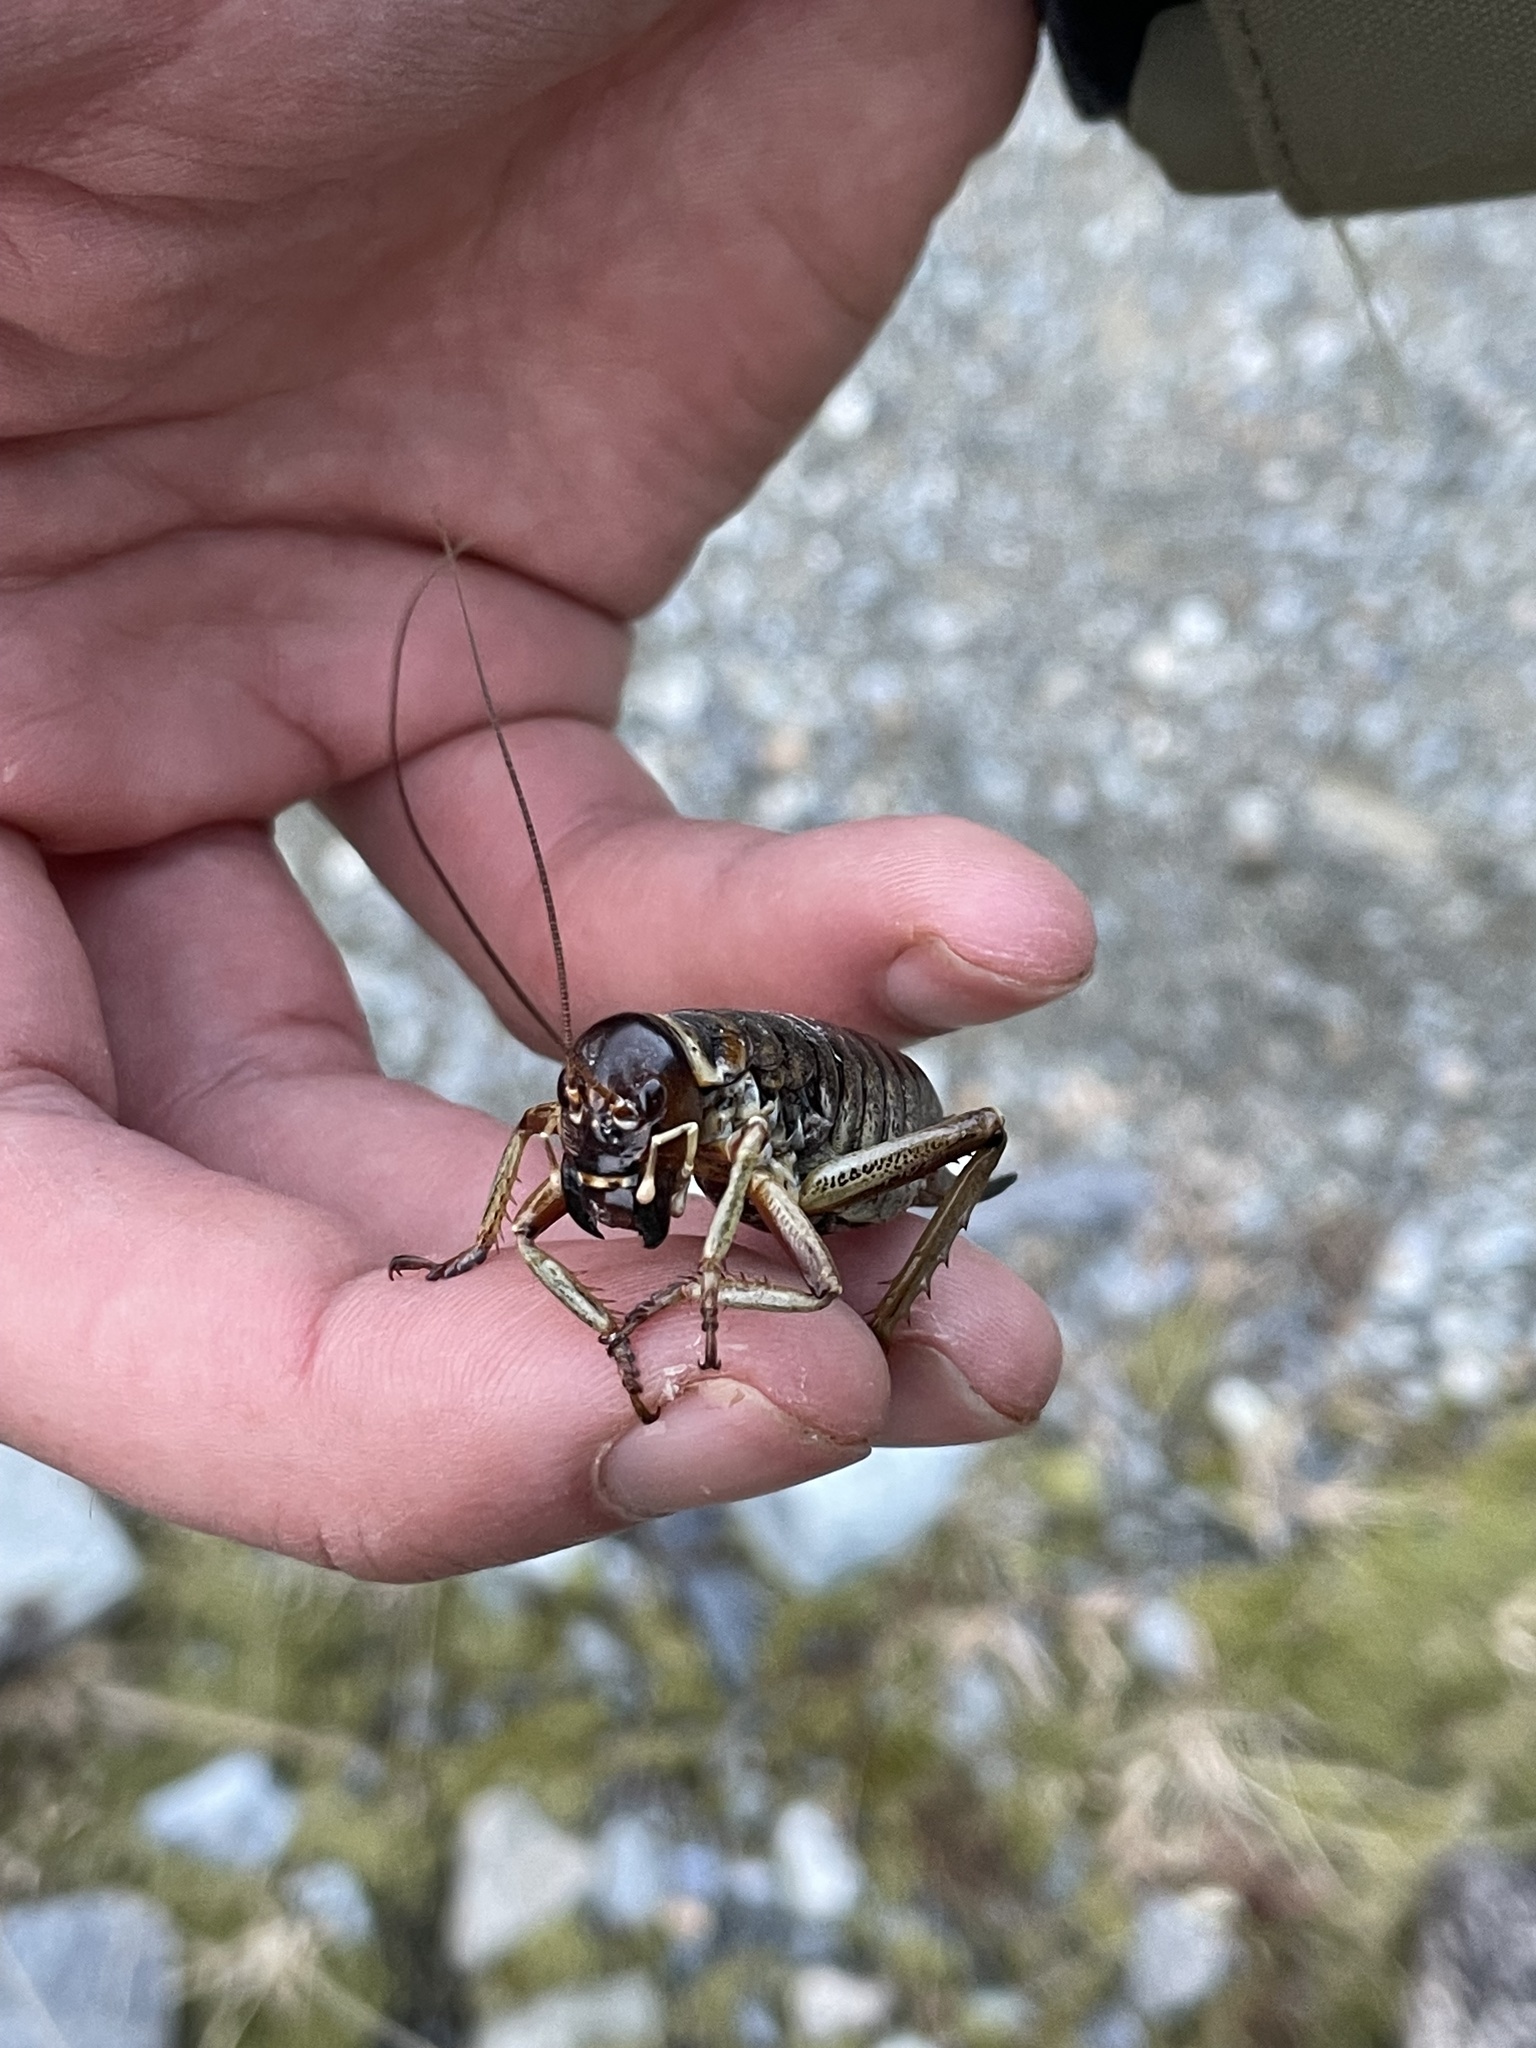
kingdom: Animalia
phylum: Arthropoda
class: Insecta
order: Orthoptera
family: Anostostomatidae
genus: Hemideina
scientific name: Hemideina maori
